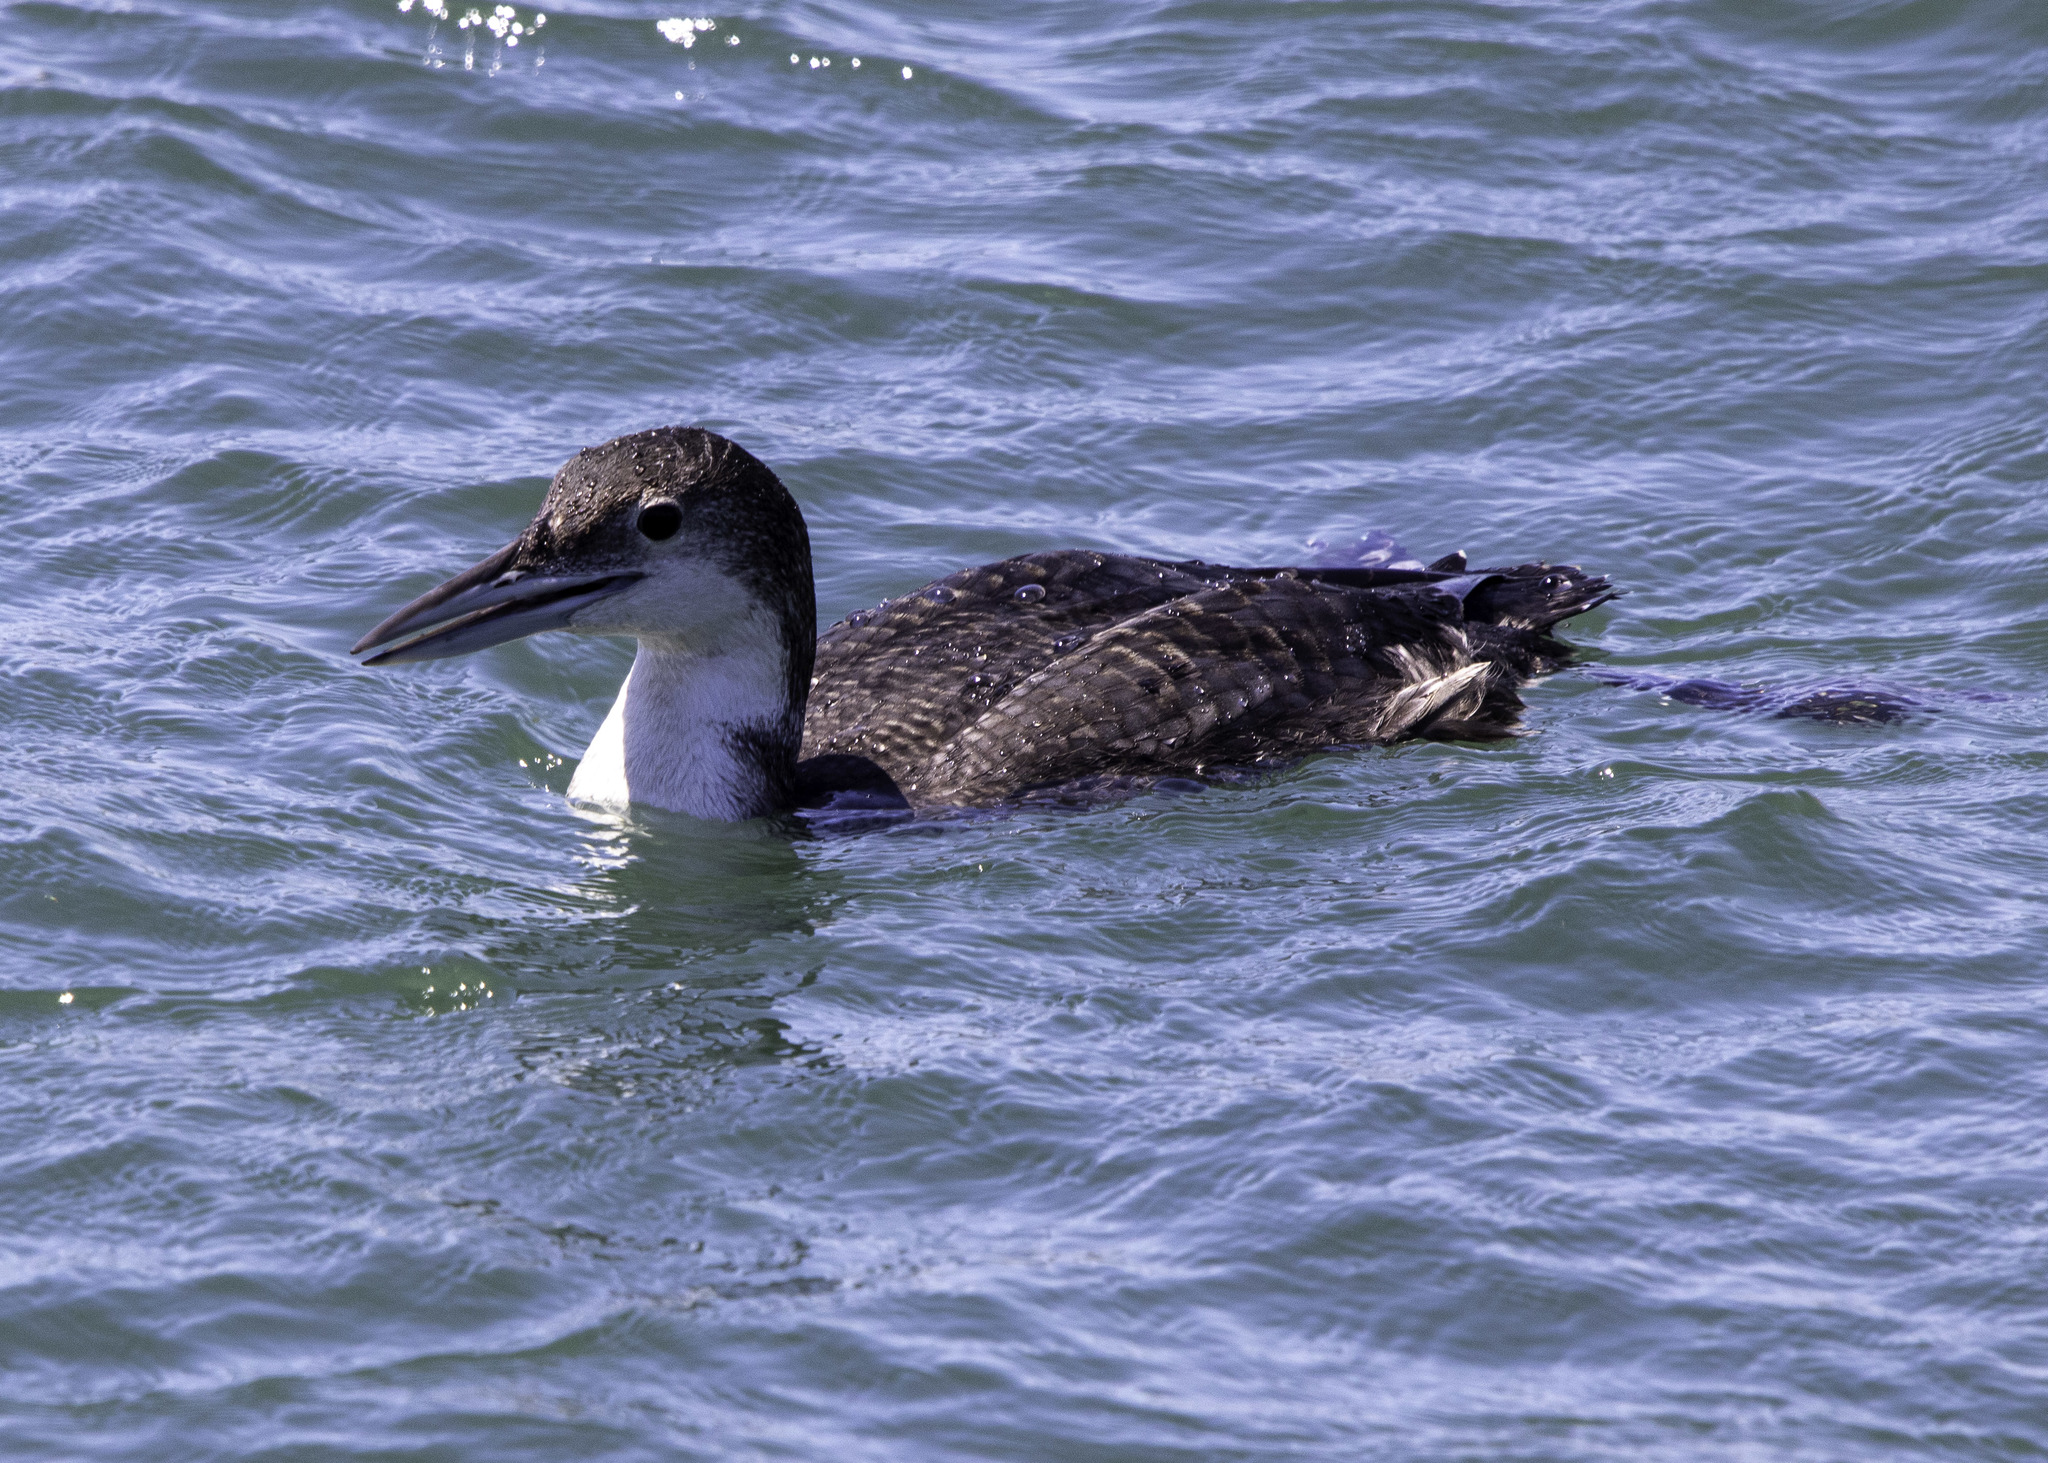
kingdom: Animalia
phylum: Chordata
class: Aves
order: Gaviiformes
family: Gaviidae
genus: Gavia
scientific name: Gavia immer
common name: Common loon
